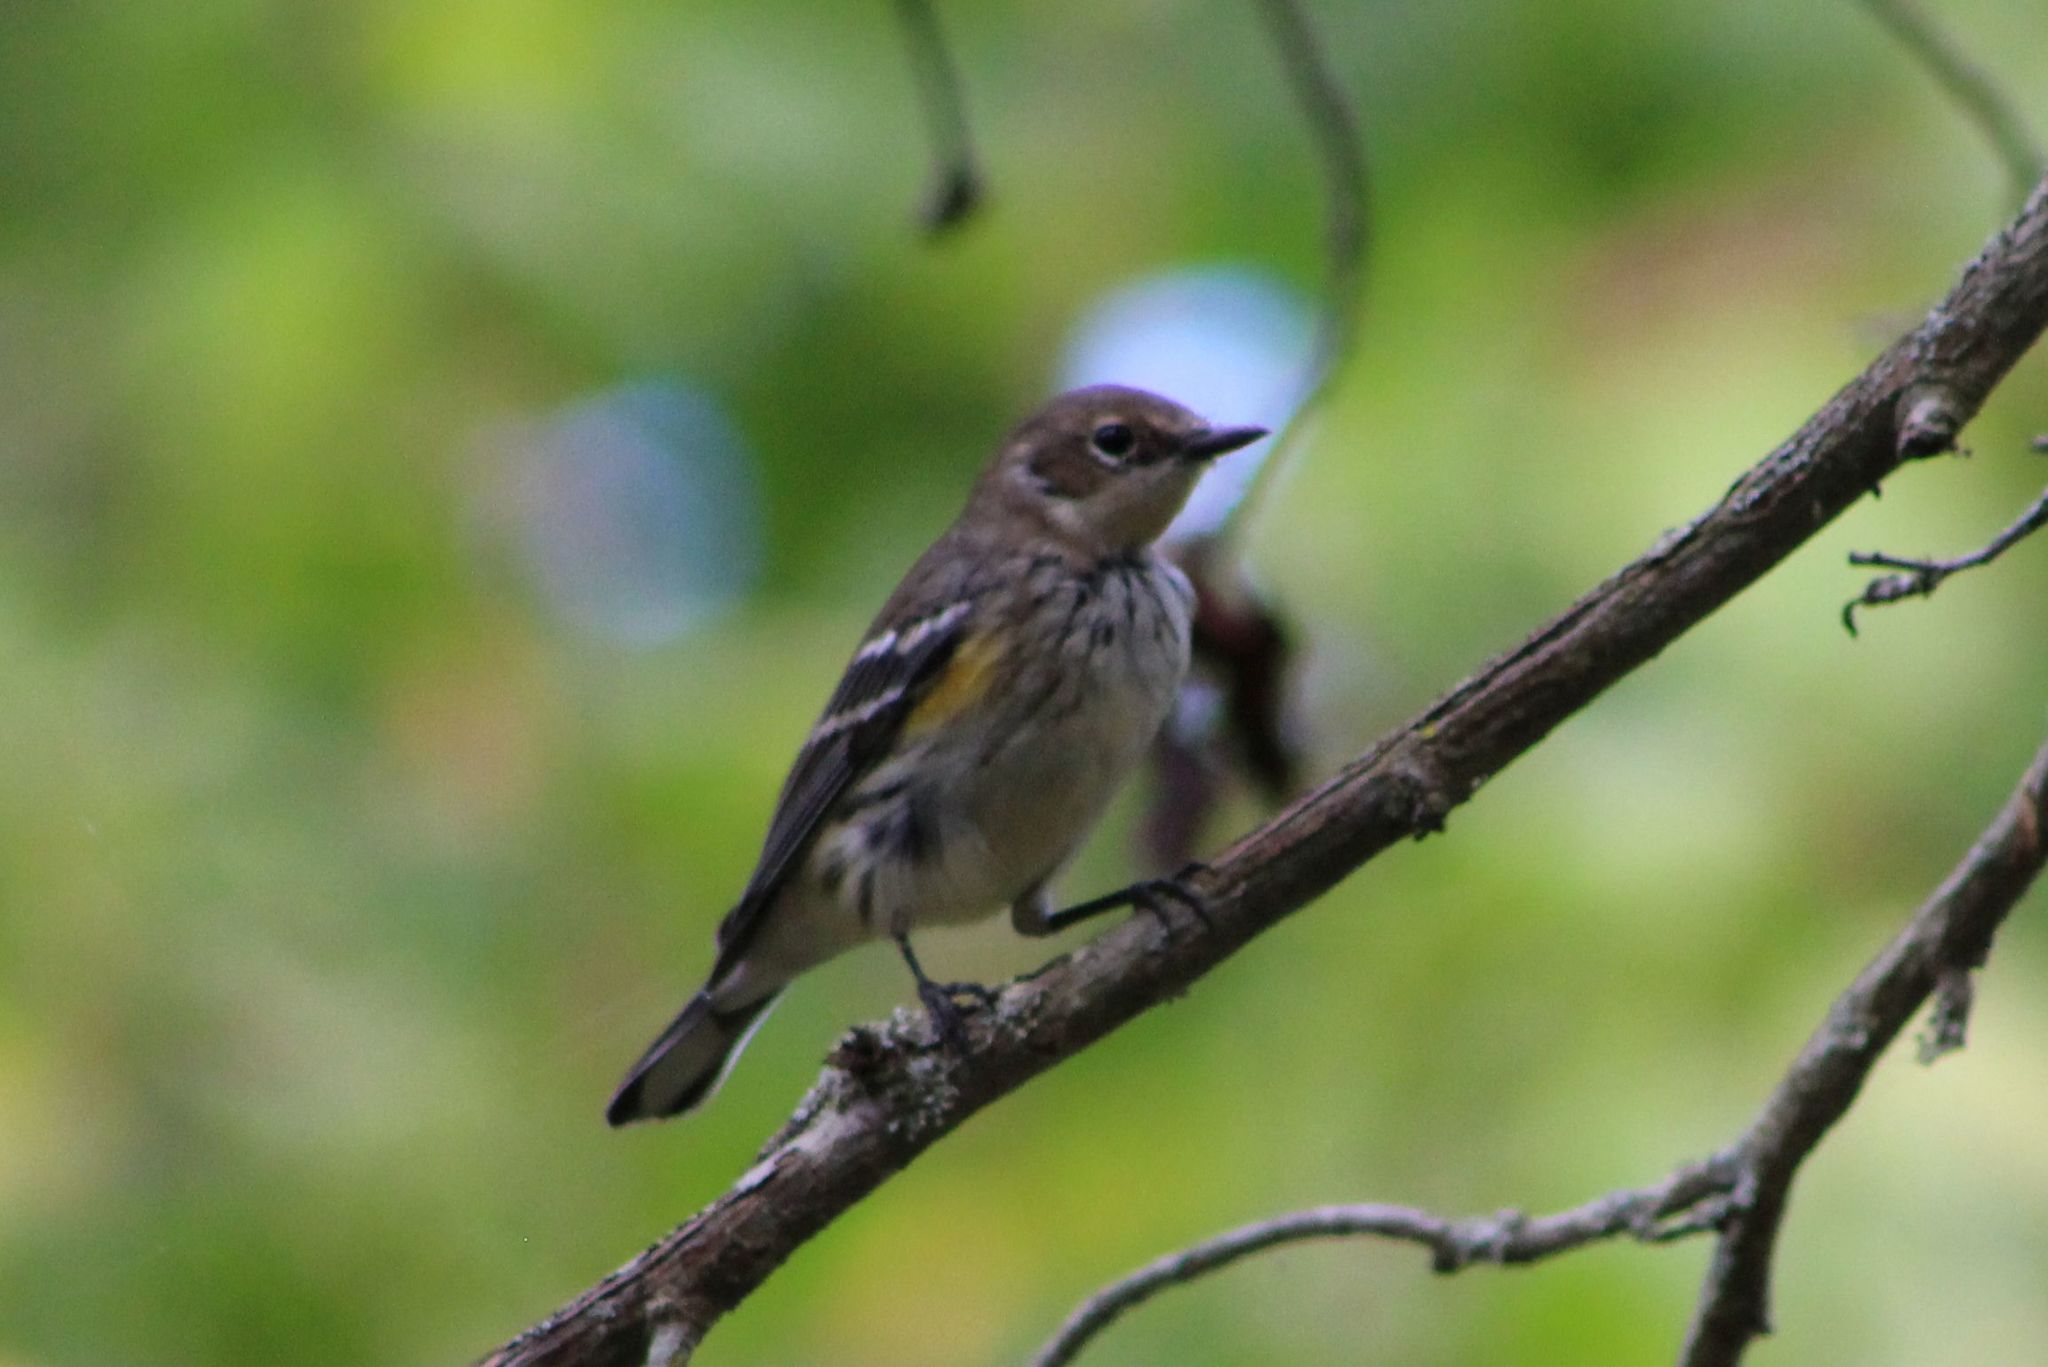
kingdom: Animalia
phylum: Chordata
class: Aves
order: Passeriformes
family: Parulidae
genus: Setophaga
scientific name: Setophaga coronata
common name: Myrtle warbler
